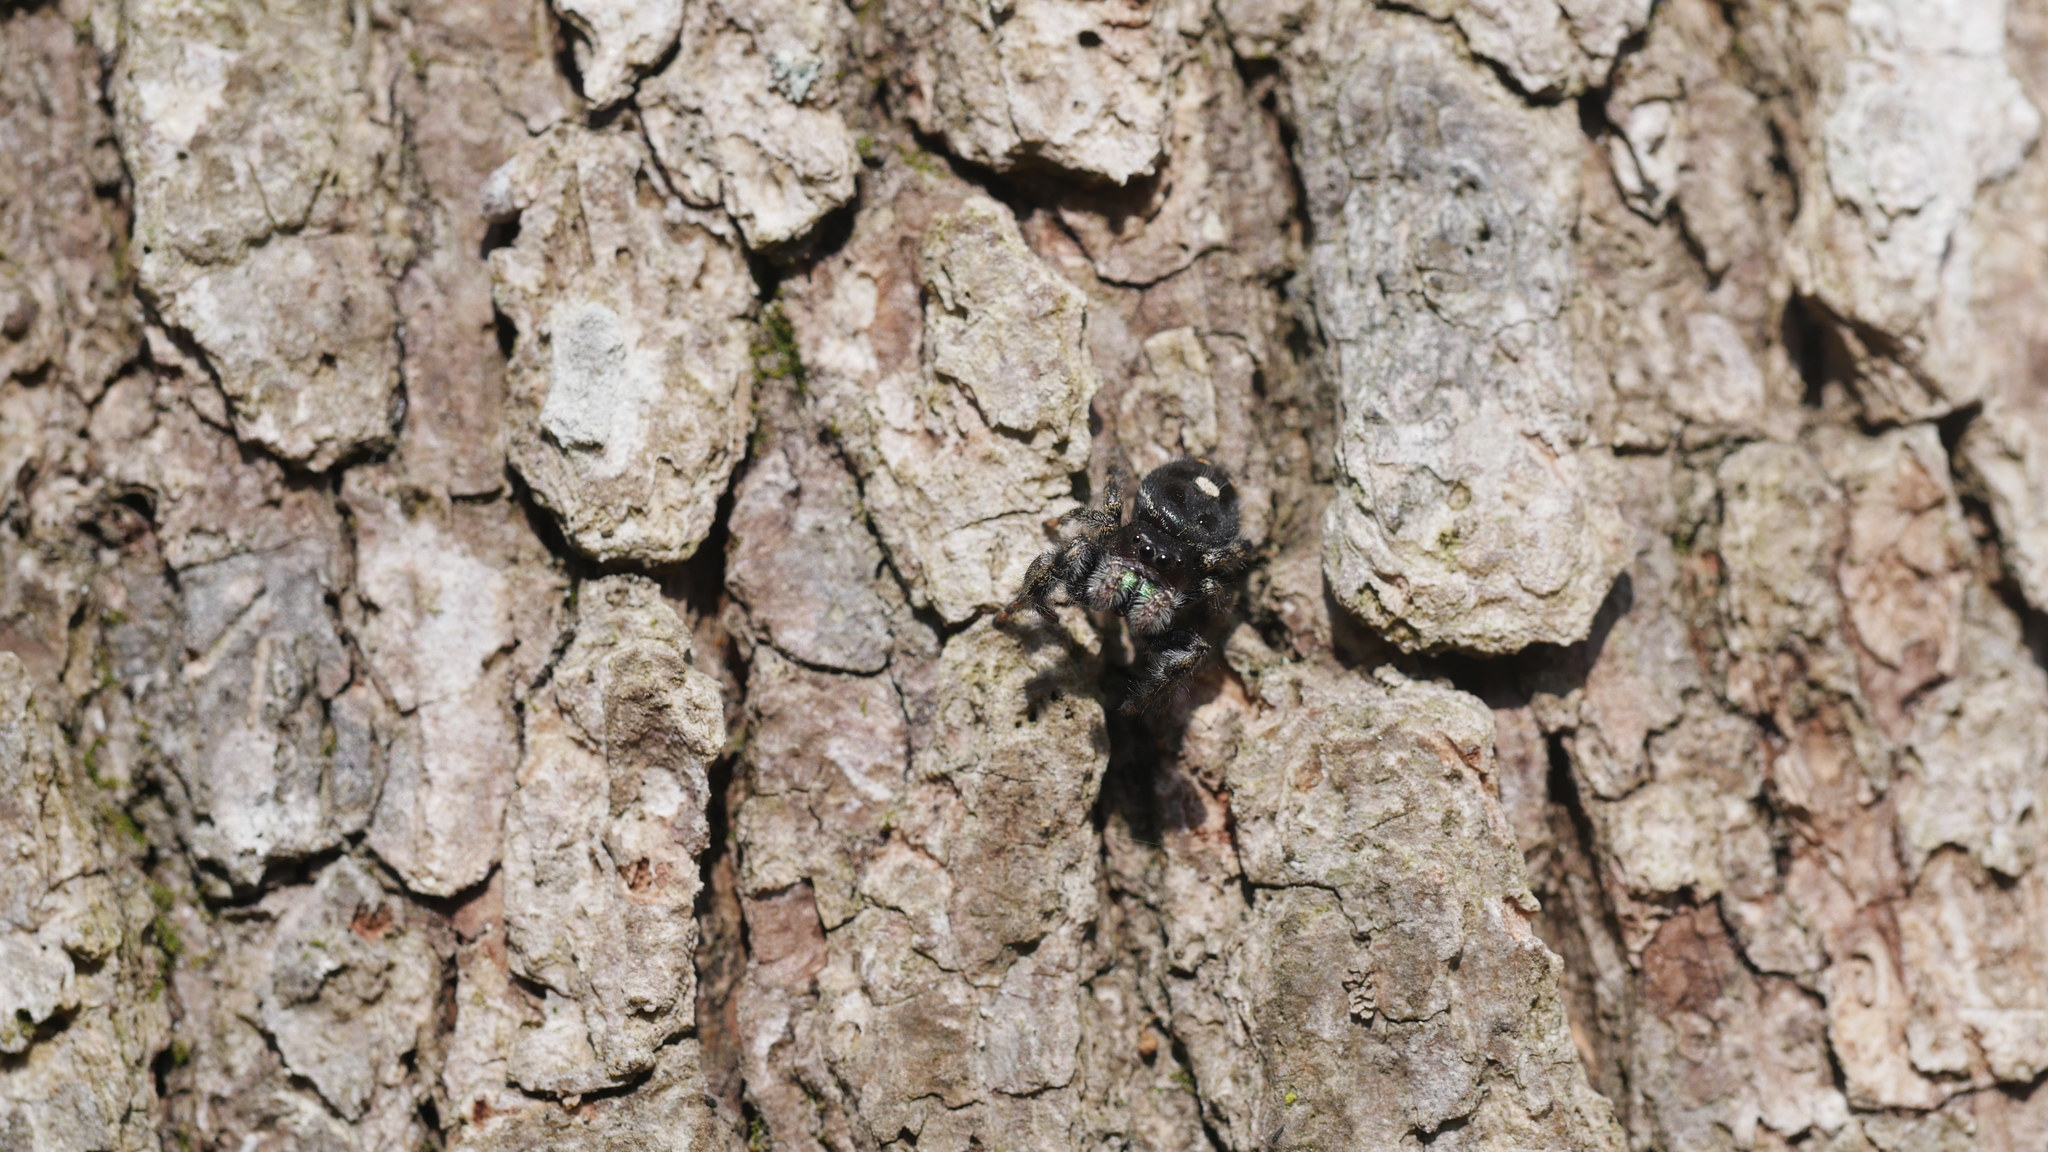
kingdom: Animalia
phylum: Arthropoda
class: Arachnida
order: Araneae
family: Salticidae
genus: Phidippus
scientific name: Phidippus audax
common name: Bold jumper
